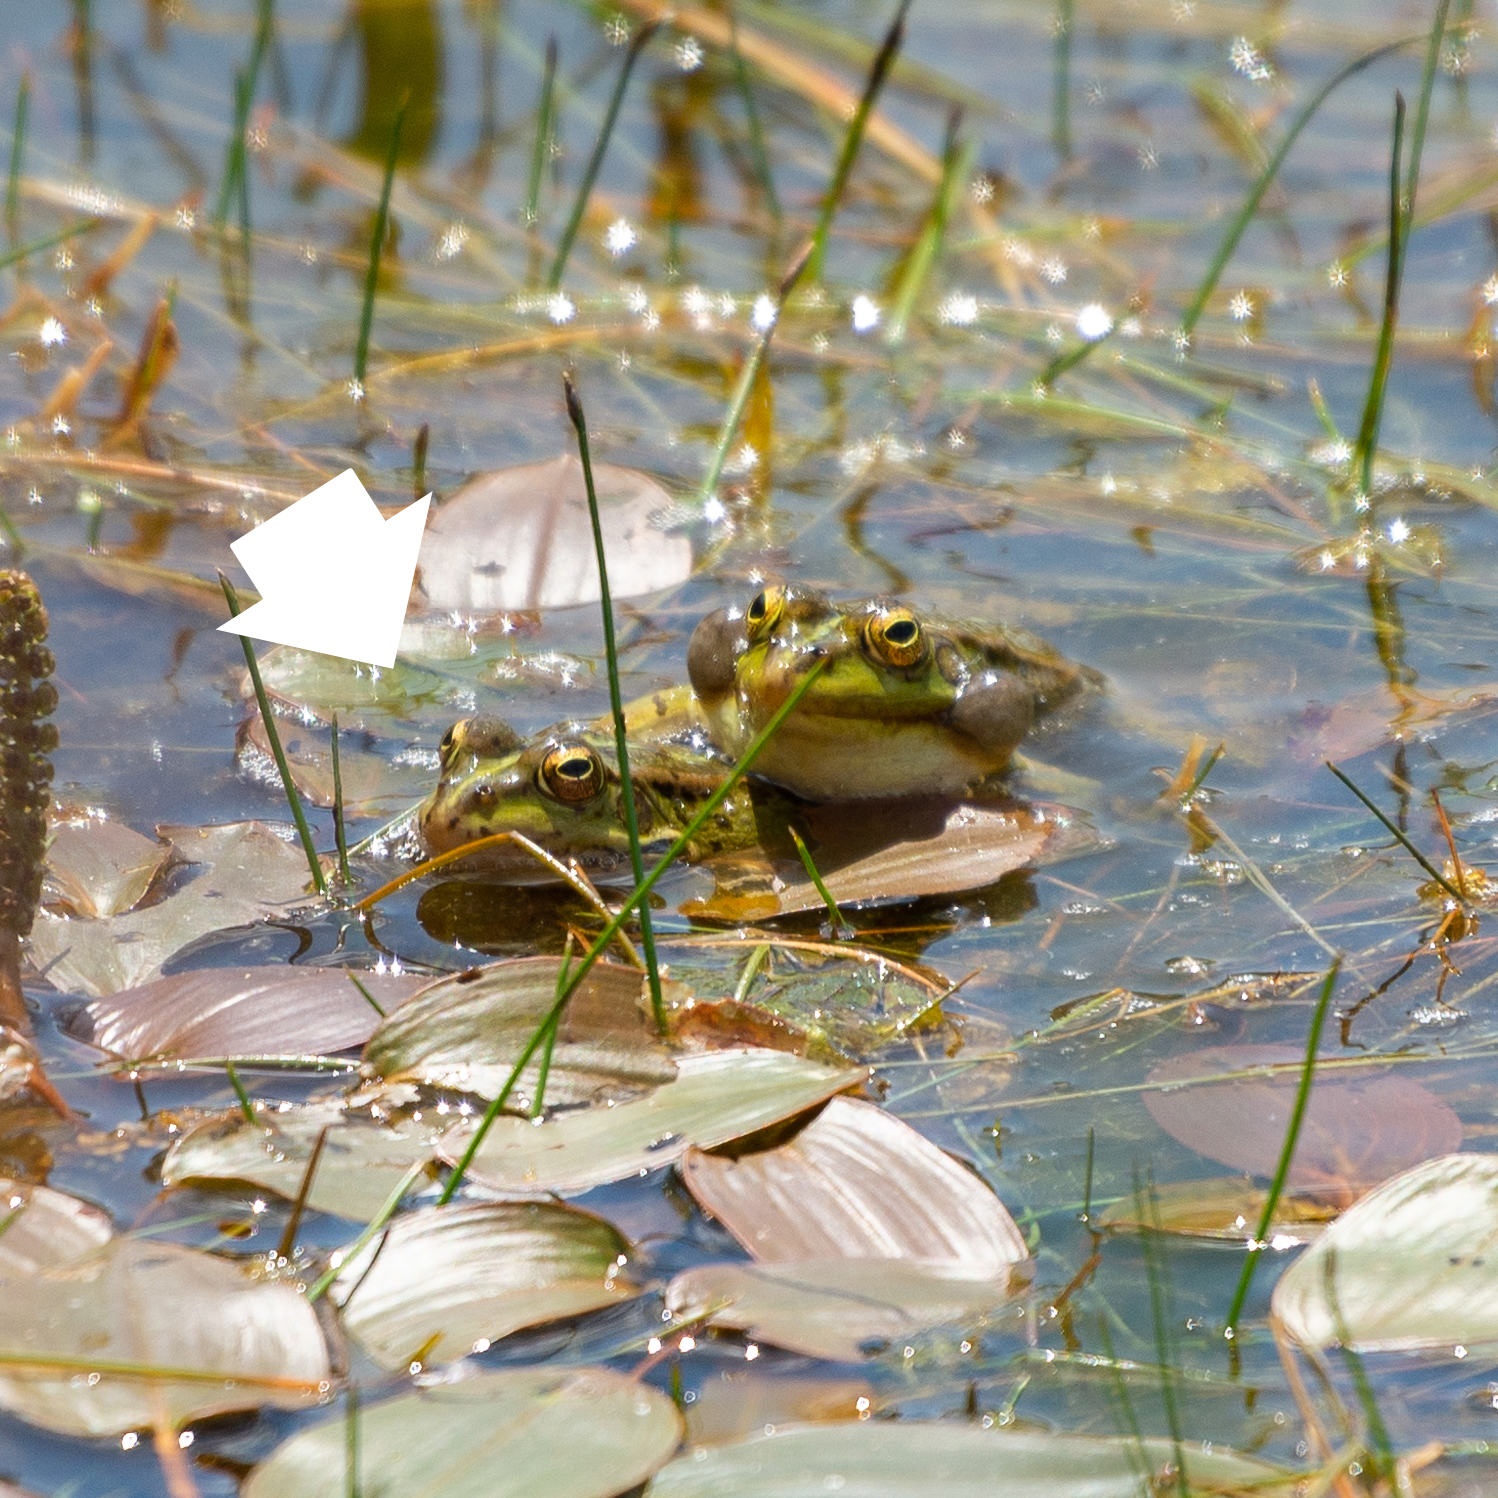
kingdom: Animalia
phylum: Chordata
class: Amphibia
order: Anura
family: Ranidae
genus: Pelophylax
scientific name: Pelophylax perezi
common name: Perez's frog
